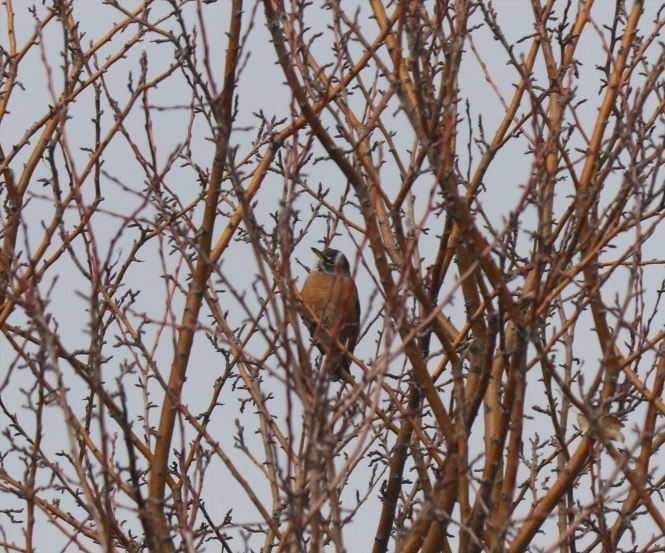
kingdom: Animalia
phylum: Chordata
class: Aves
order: Passeriformes
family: Turdidae
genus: Turdus
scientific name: Turdus migratorius
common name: American robin
